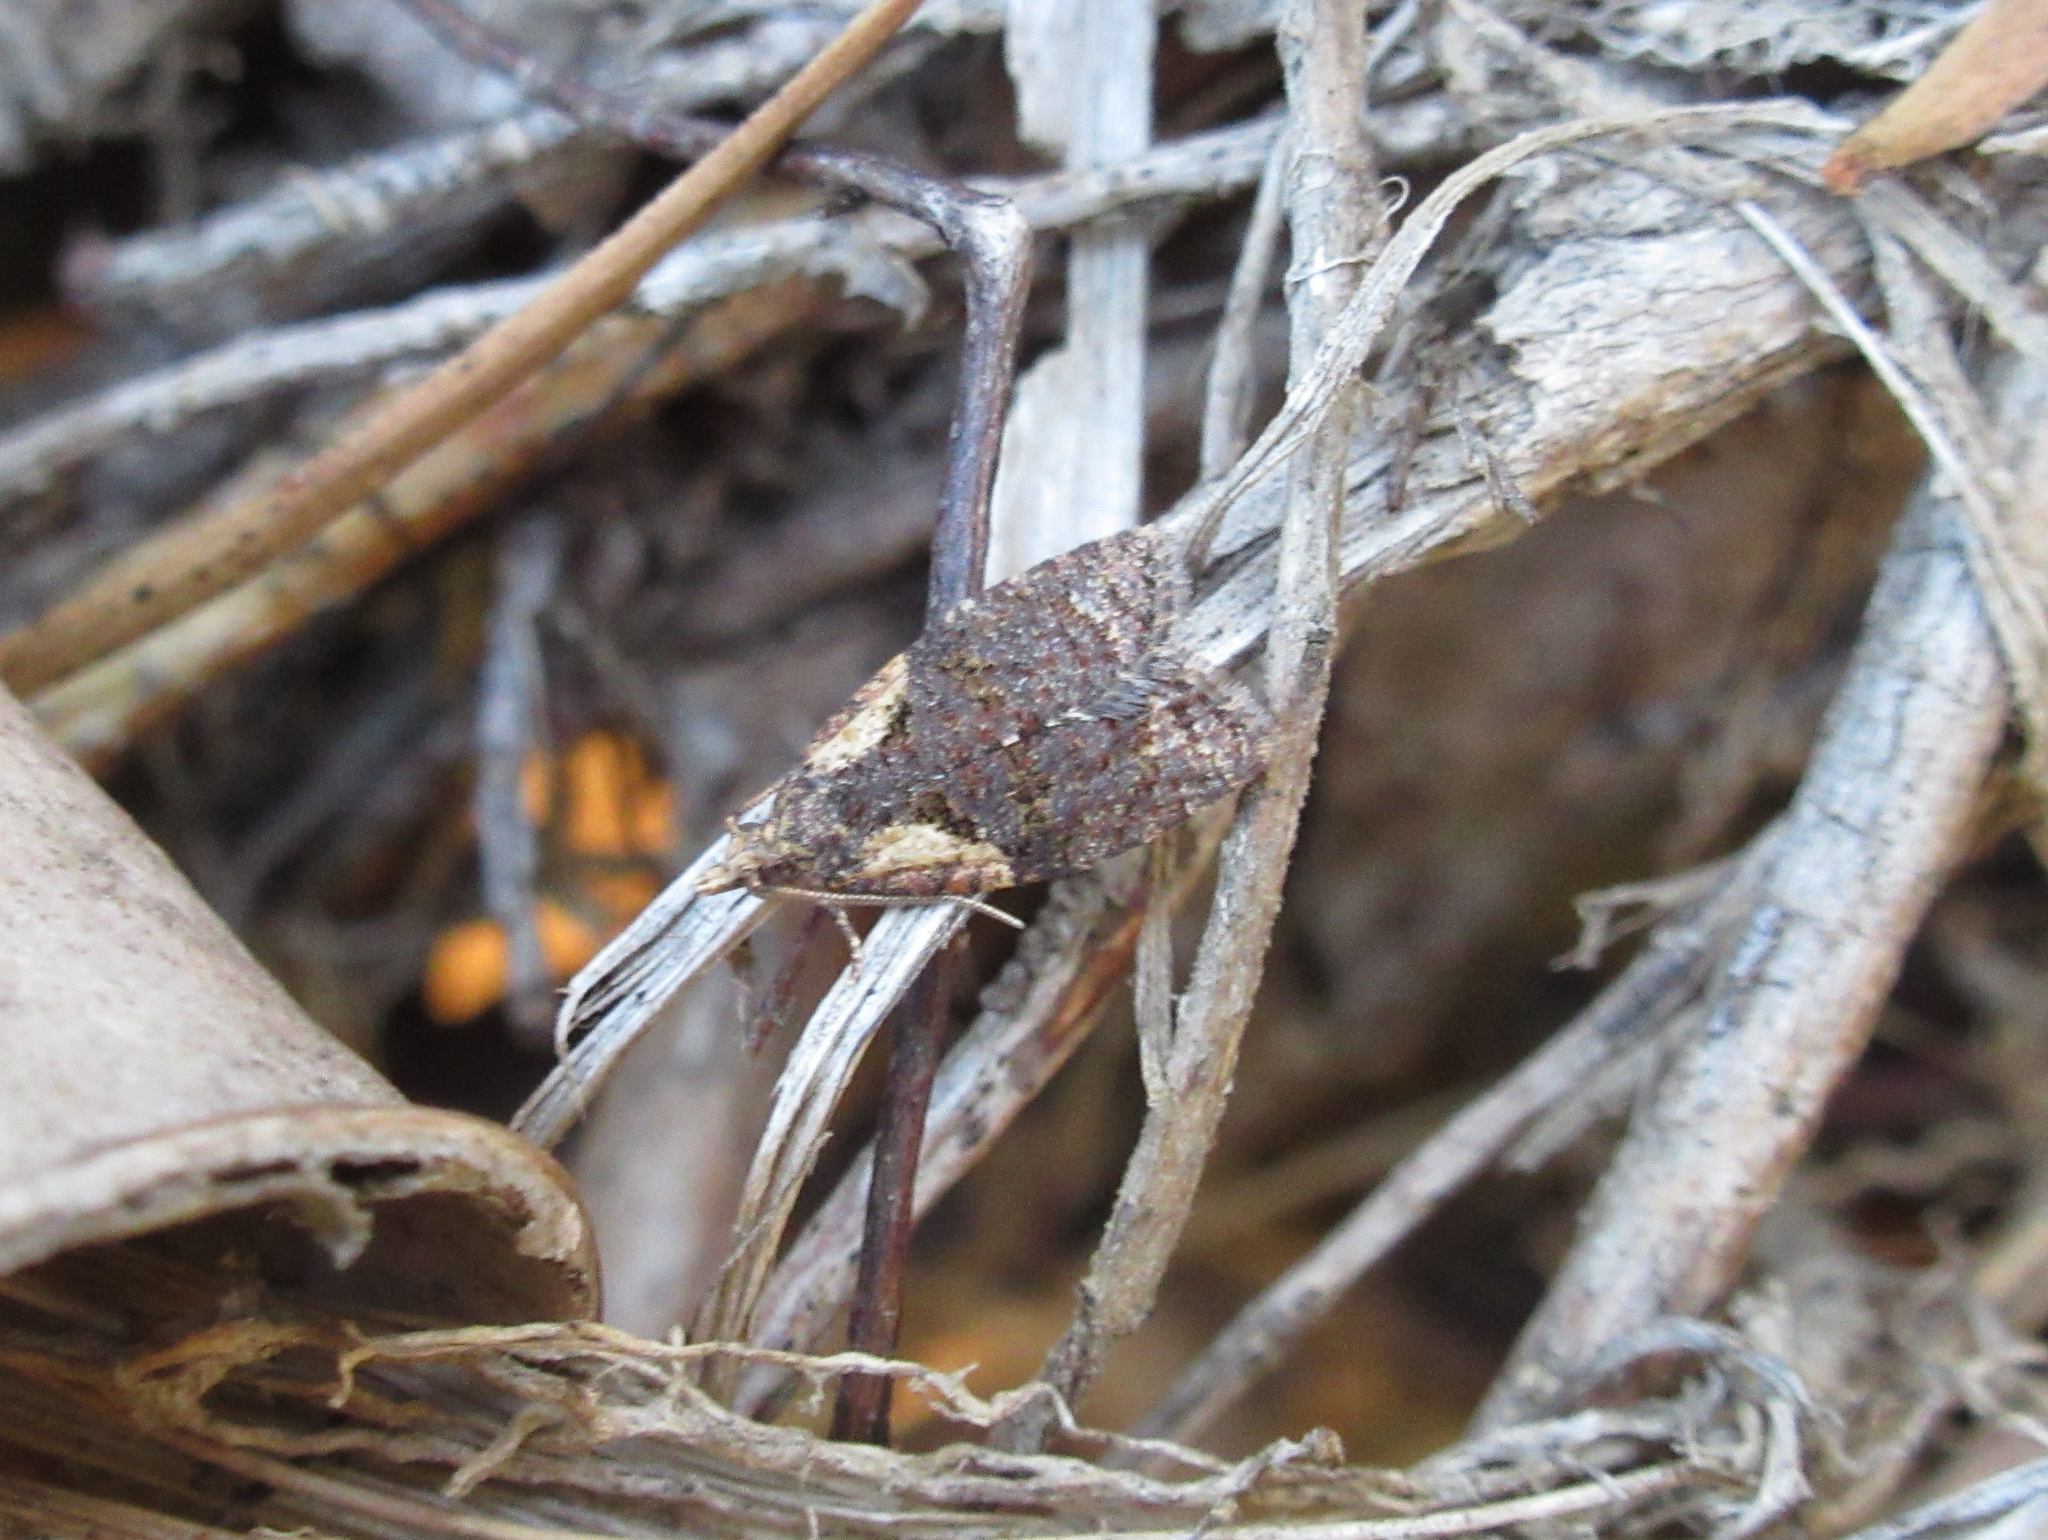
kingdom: Animalia
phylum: Arthropoda
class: Insecta
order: Lepidoptera
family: Tortricidae
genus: Capua
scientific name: Capua intractana
